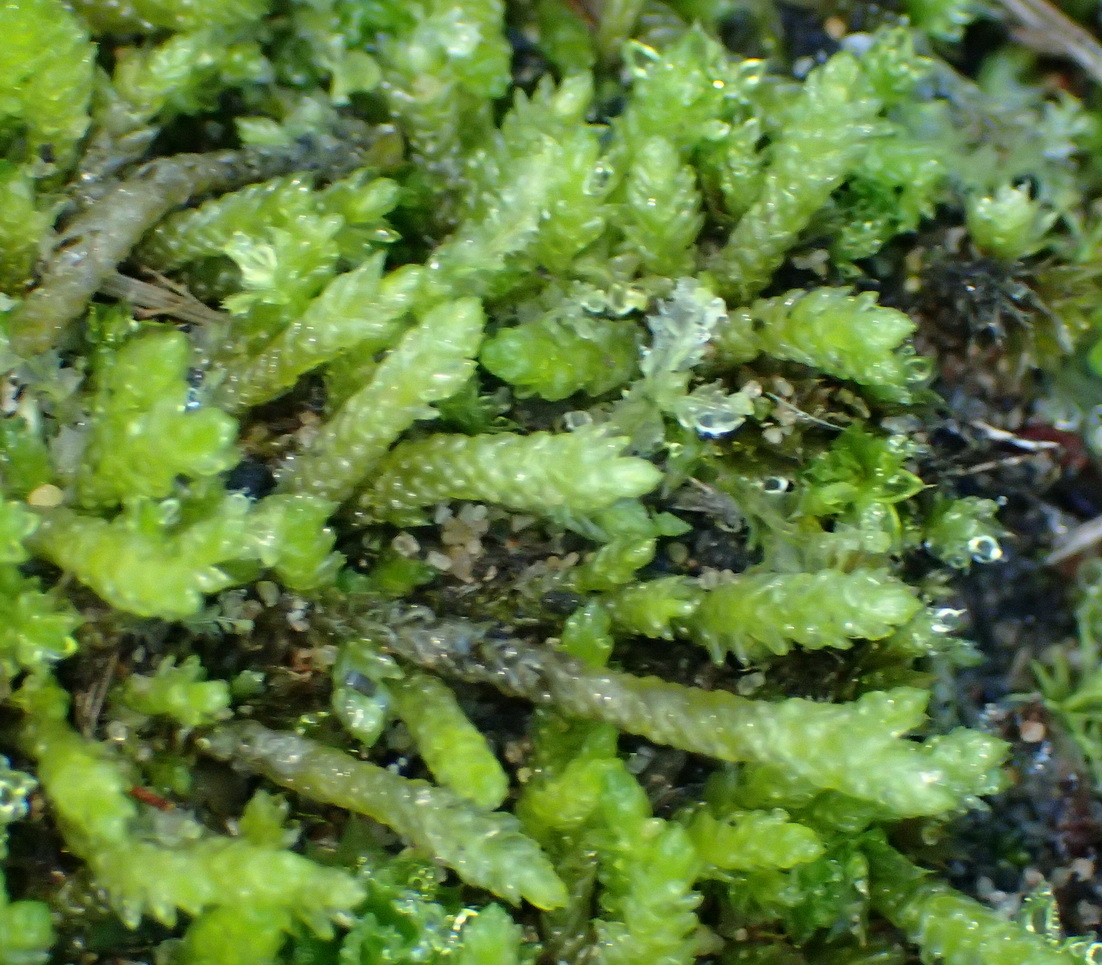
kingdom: Plantae
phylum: Bryophyta
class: Bryopsida
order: Hypnales
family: Catagoniaceae
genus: Catagonium
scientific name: Catagonium nitens
